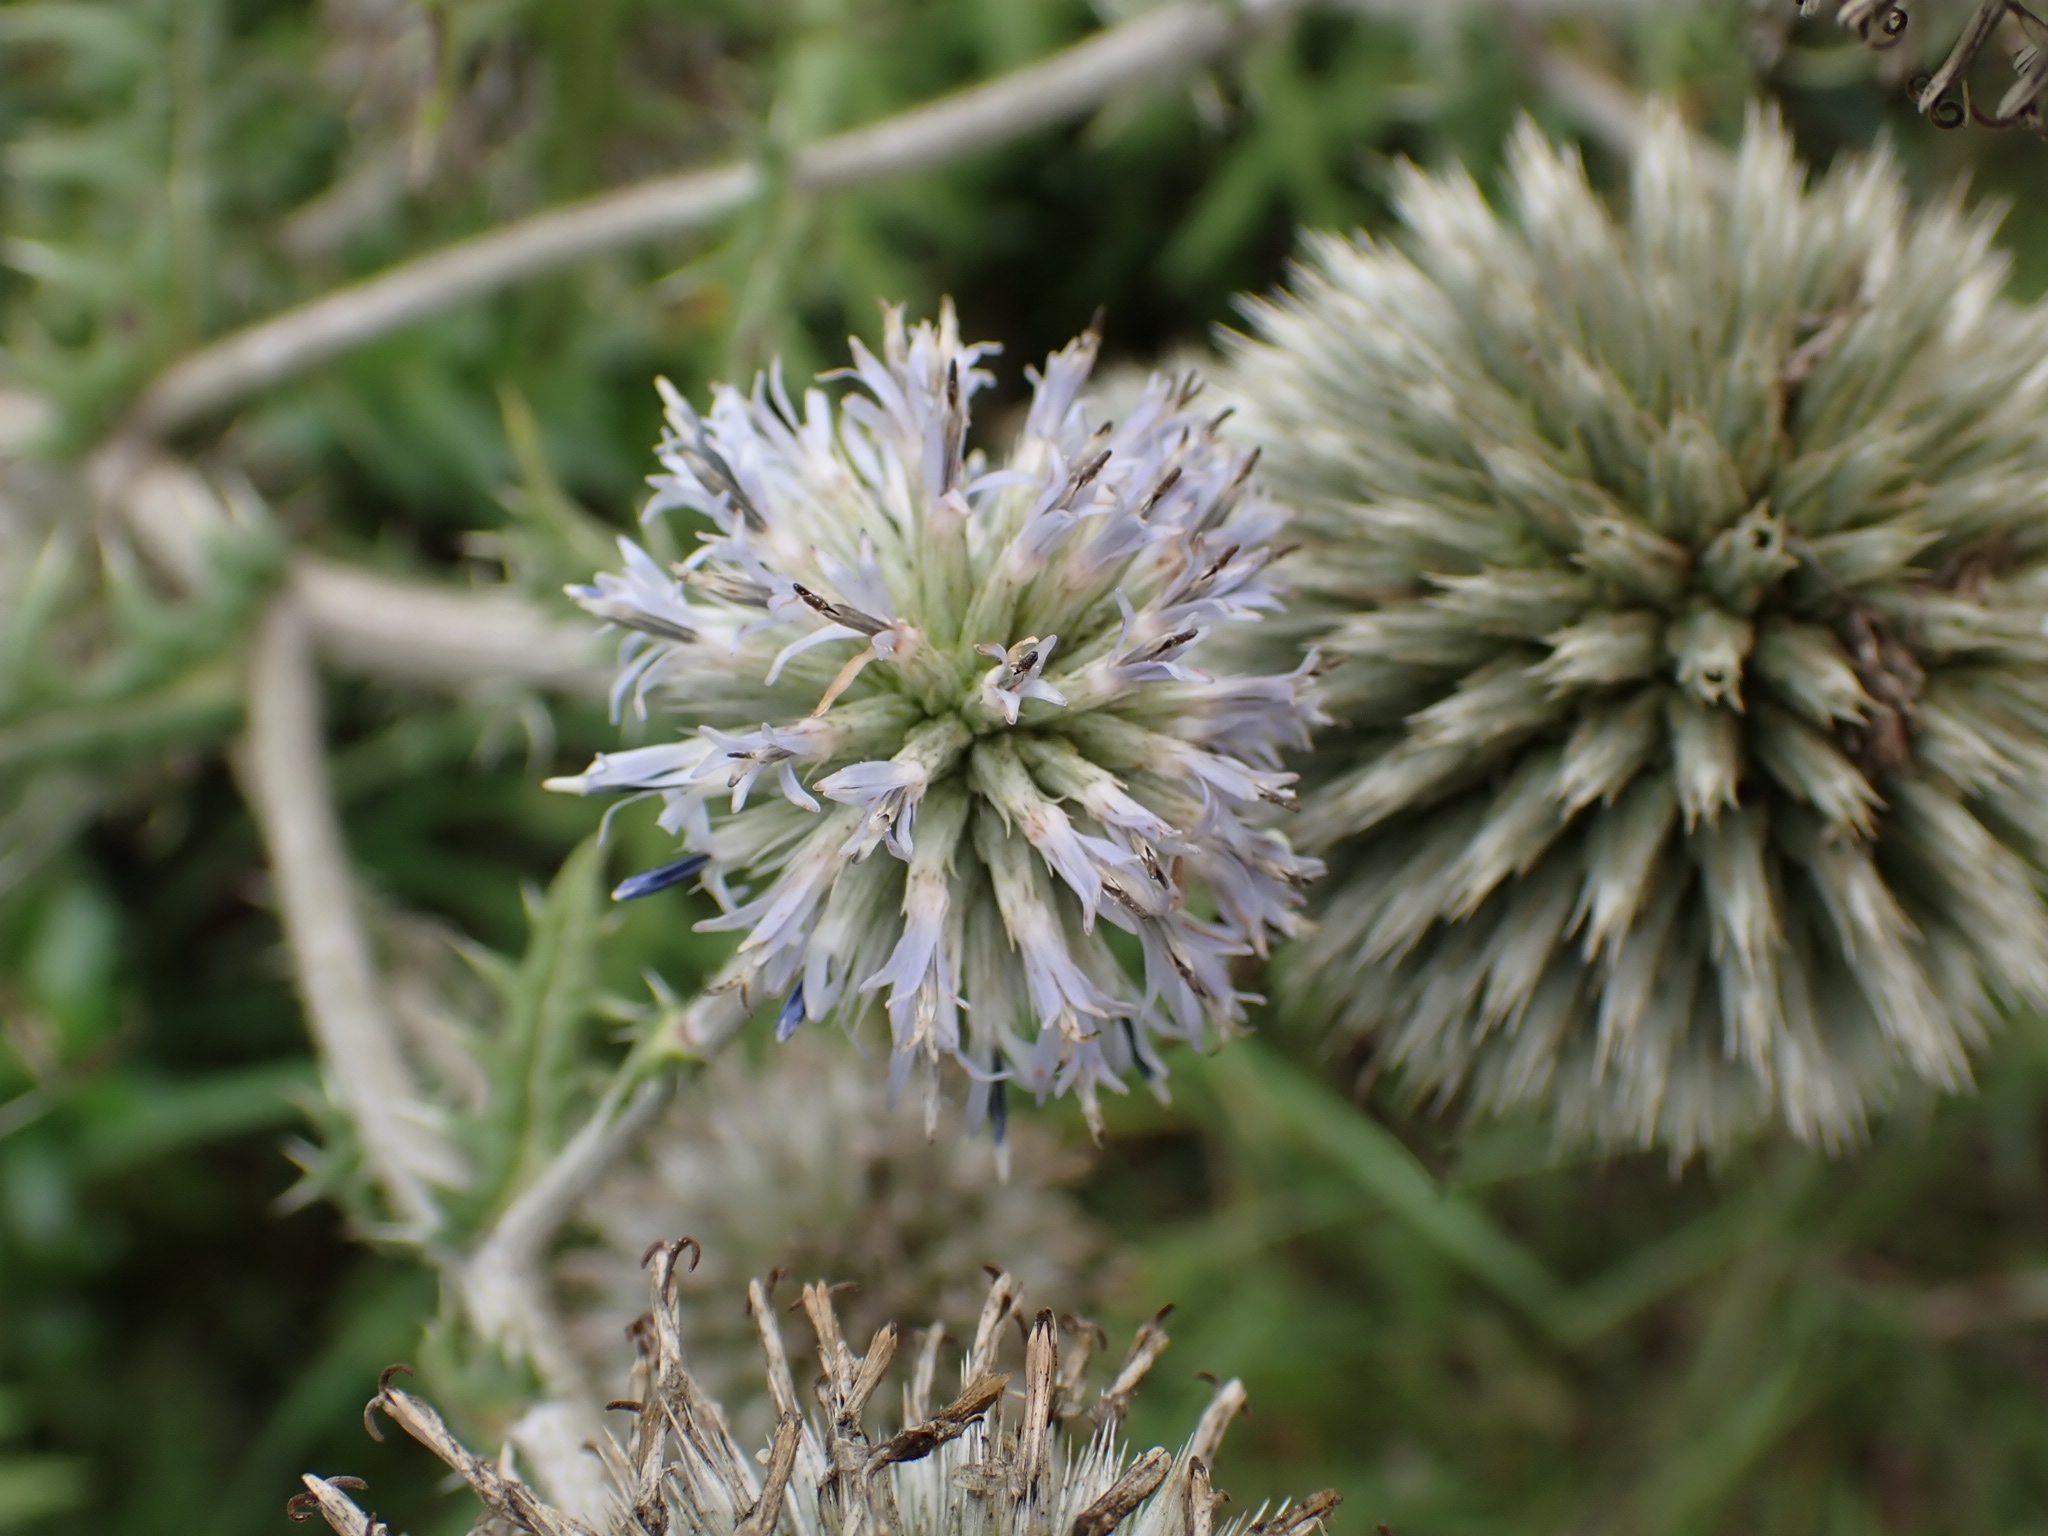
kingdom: Plantae
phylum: Tracheophyta
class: Magnoliopsida
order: Asterales
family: Asteraceae
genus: Echinops
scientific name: Echinops sphaerocephalus
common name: Glandular globe-thistle
